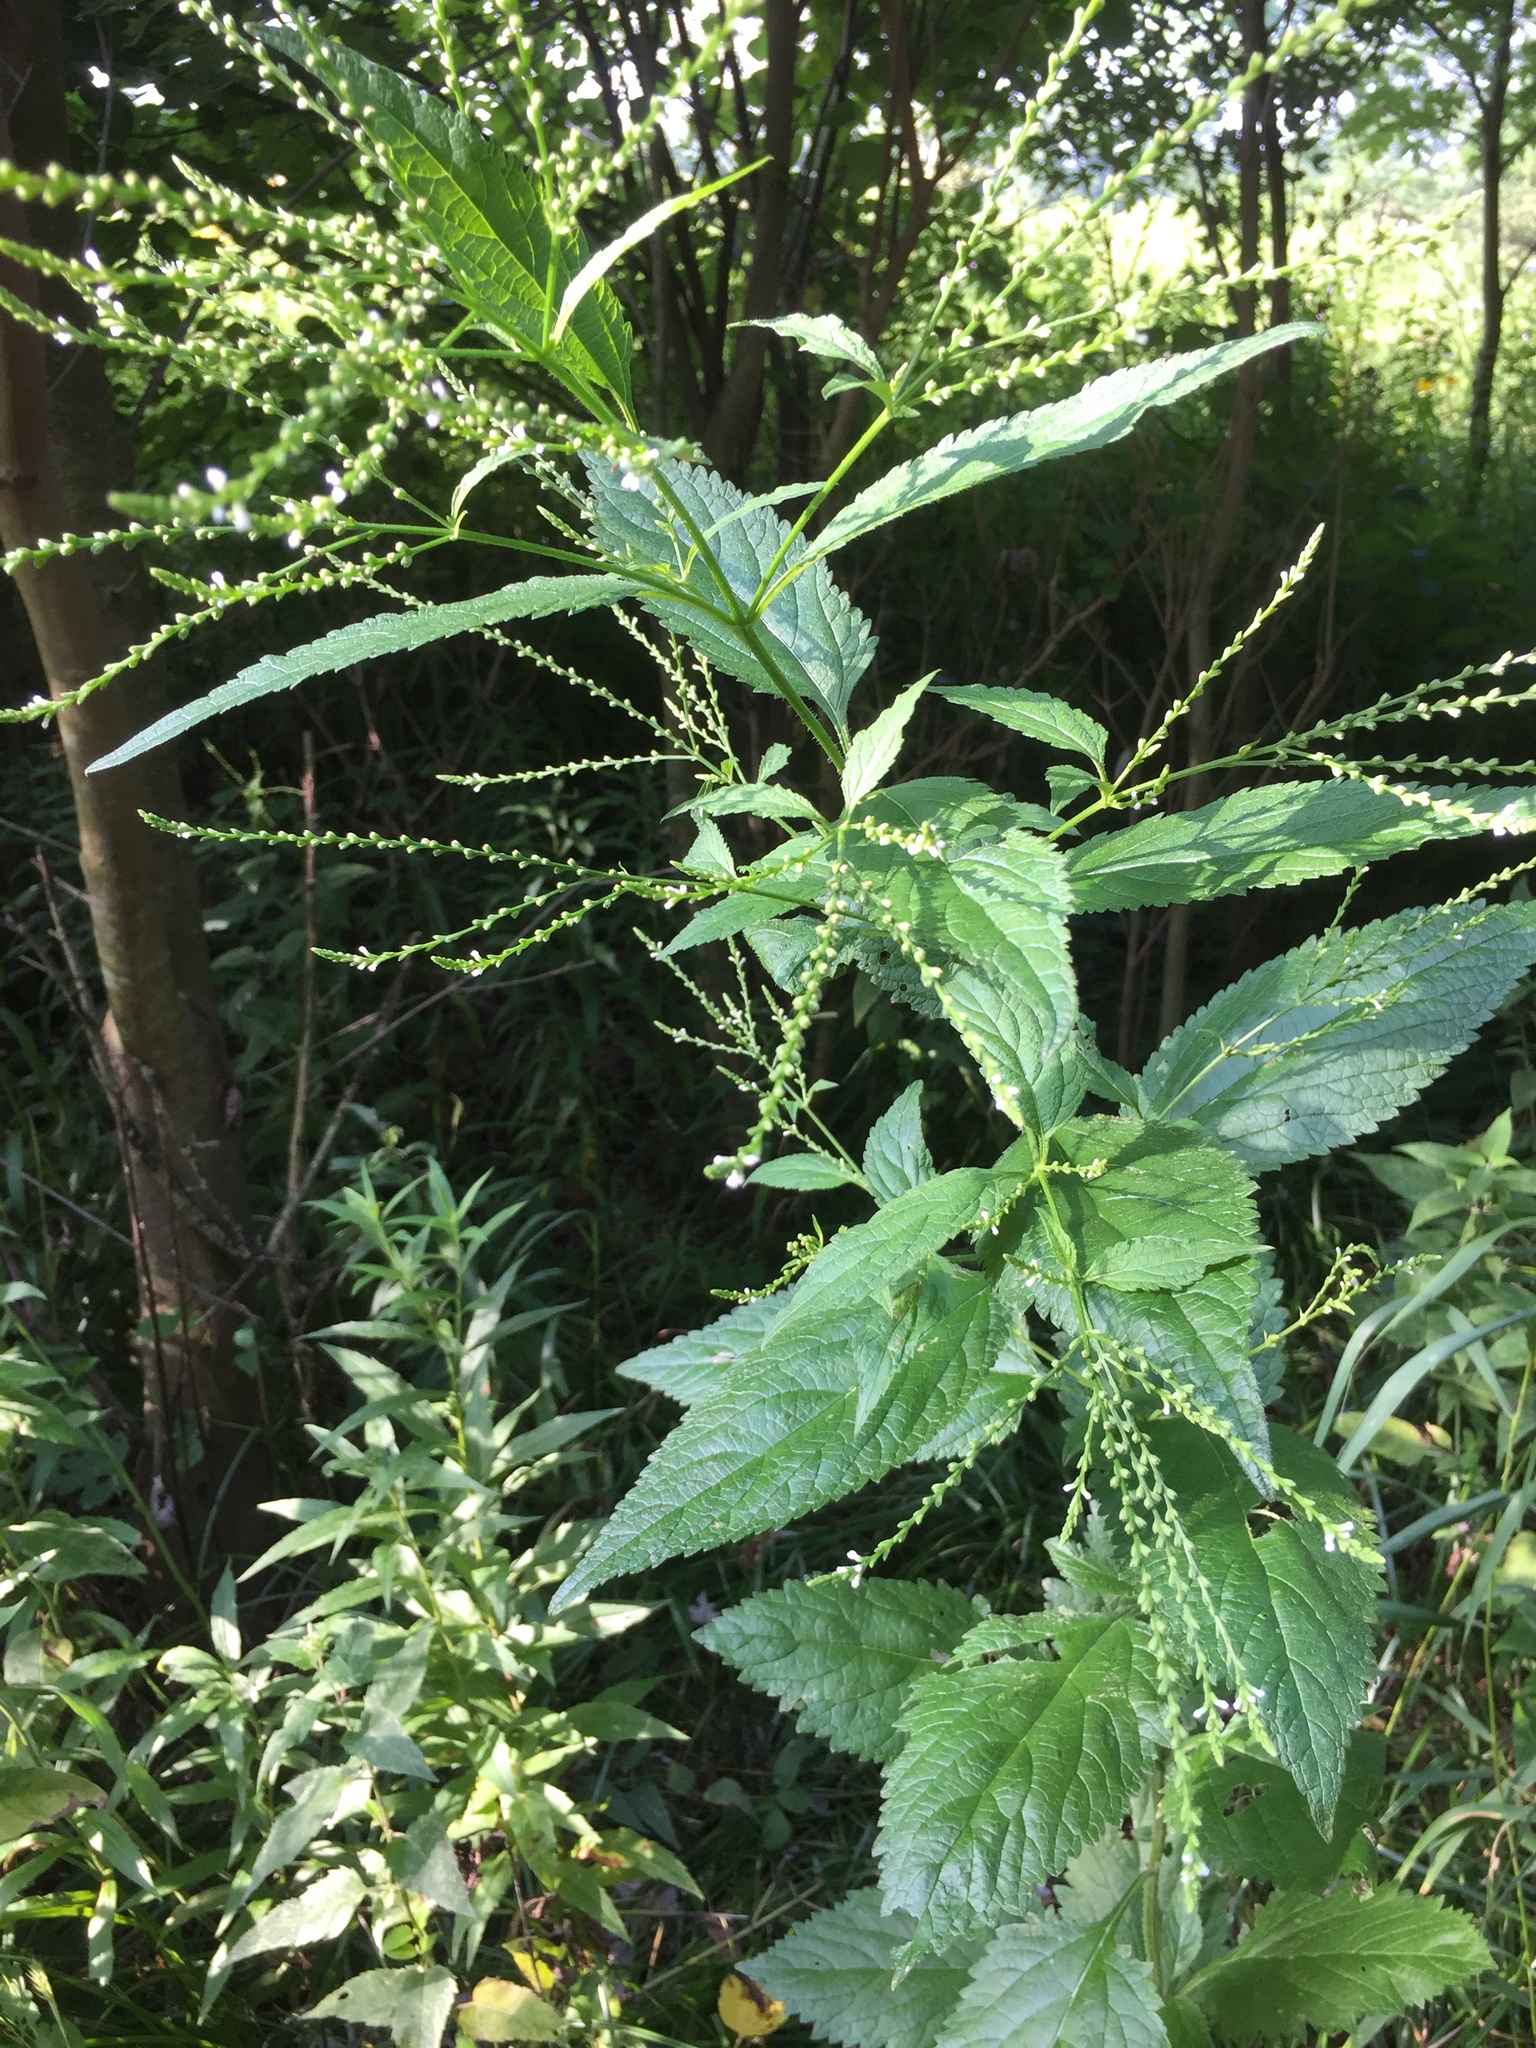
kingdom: Plantae
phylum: Tracheophyta
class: Magnoliopsida
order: Lamiales
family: Verbenaceae
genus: Verbena
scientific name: Verbena urticifolia
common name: Nettle-leaved vervain
